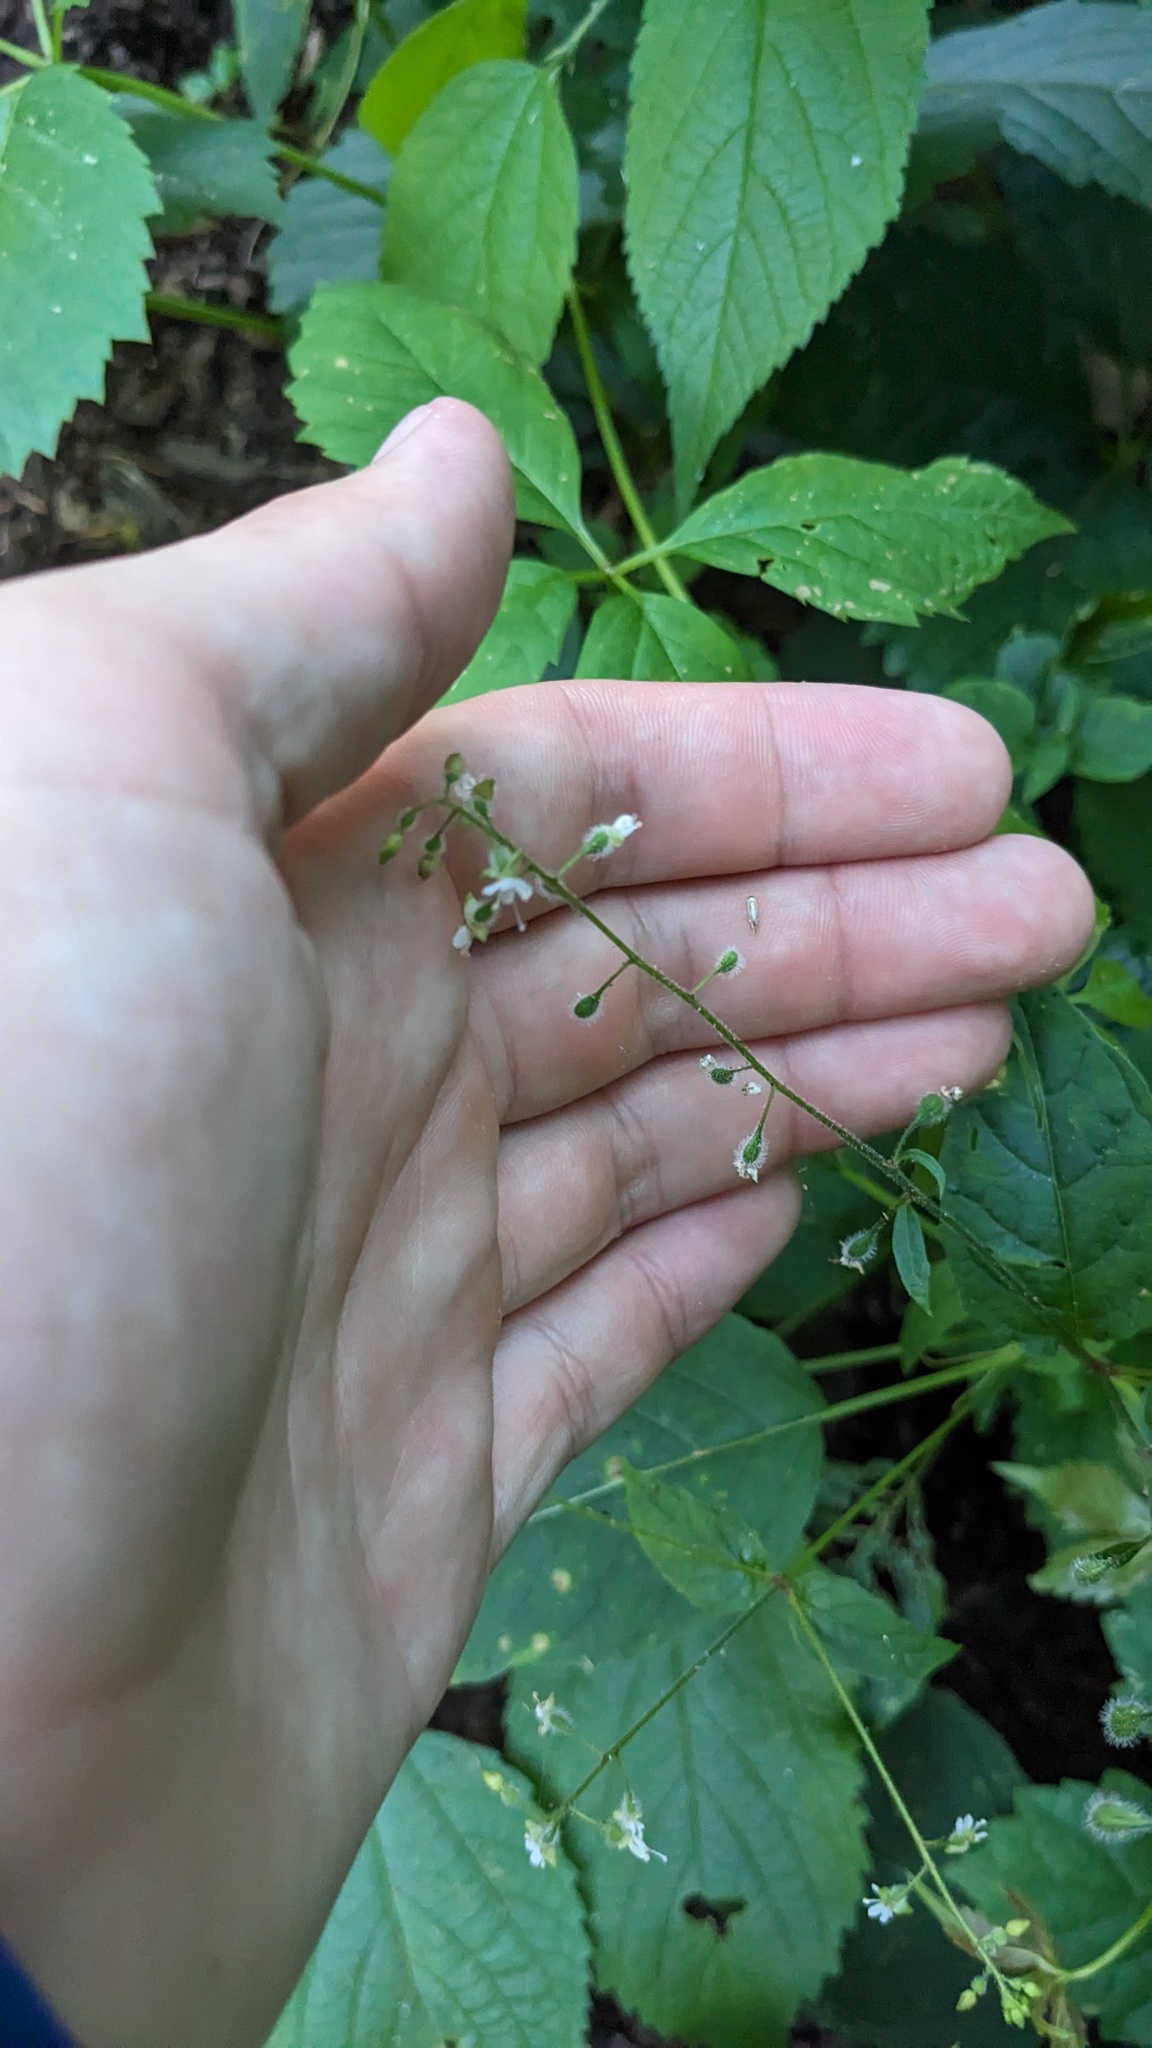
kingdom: Plantae
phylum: Tracheophyta
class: Magnoliopsida
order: Myrtales
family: Onagraceae
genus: Circaea
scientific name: Circaea canadensis
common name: Broad-leaved enchanter's nightshade
